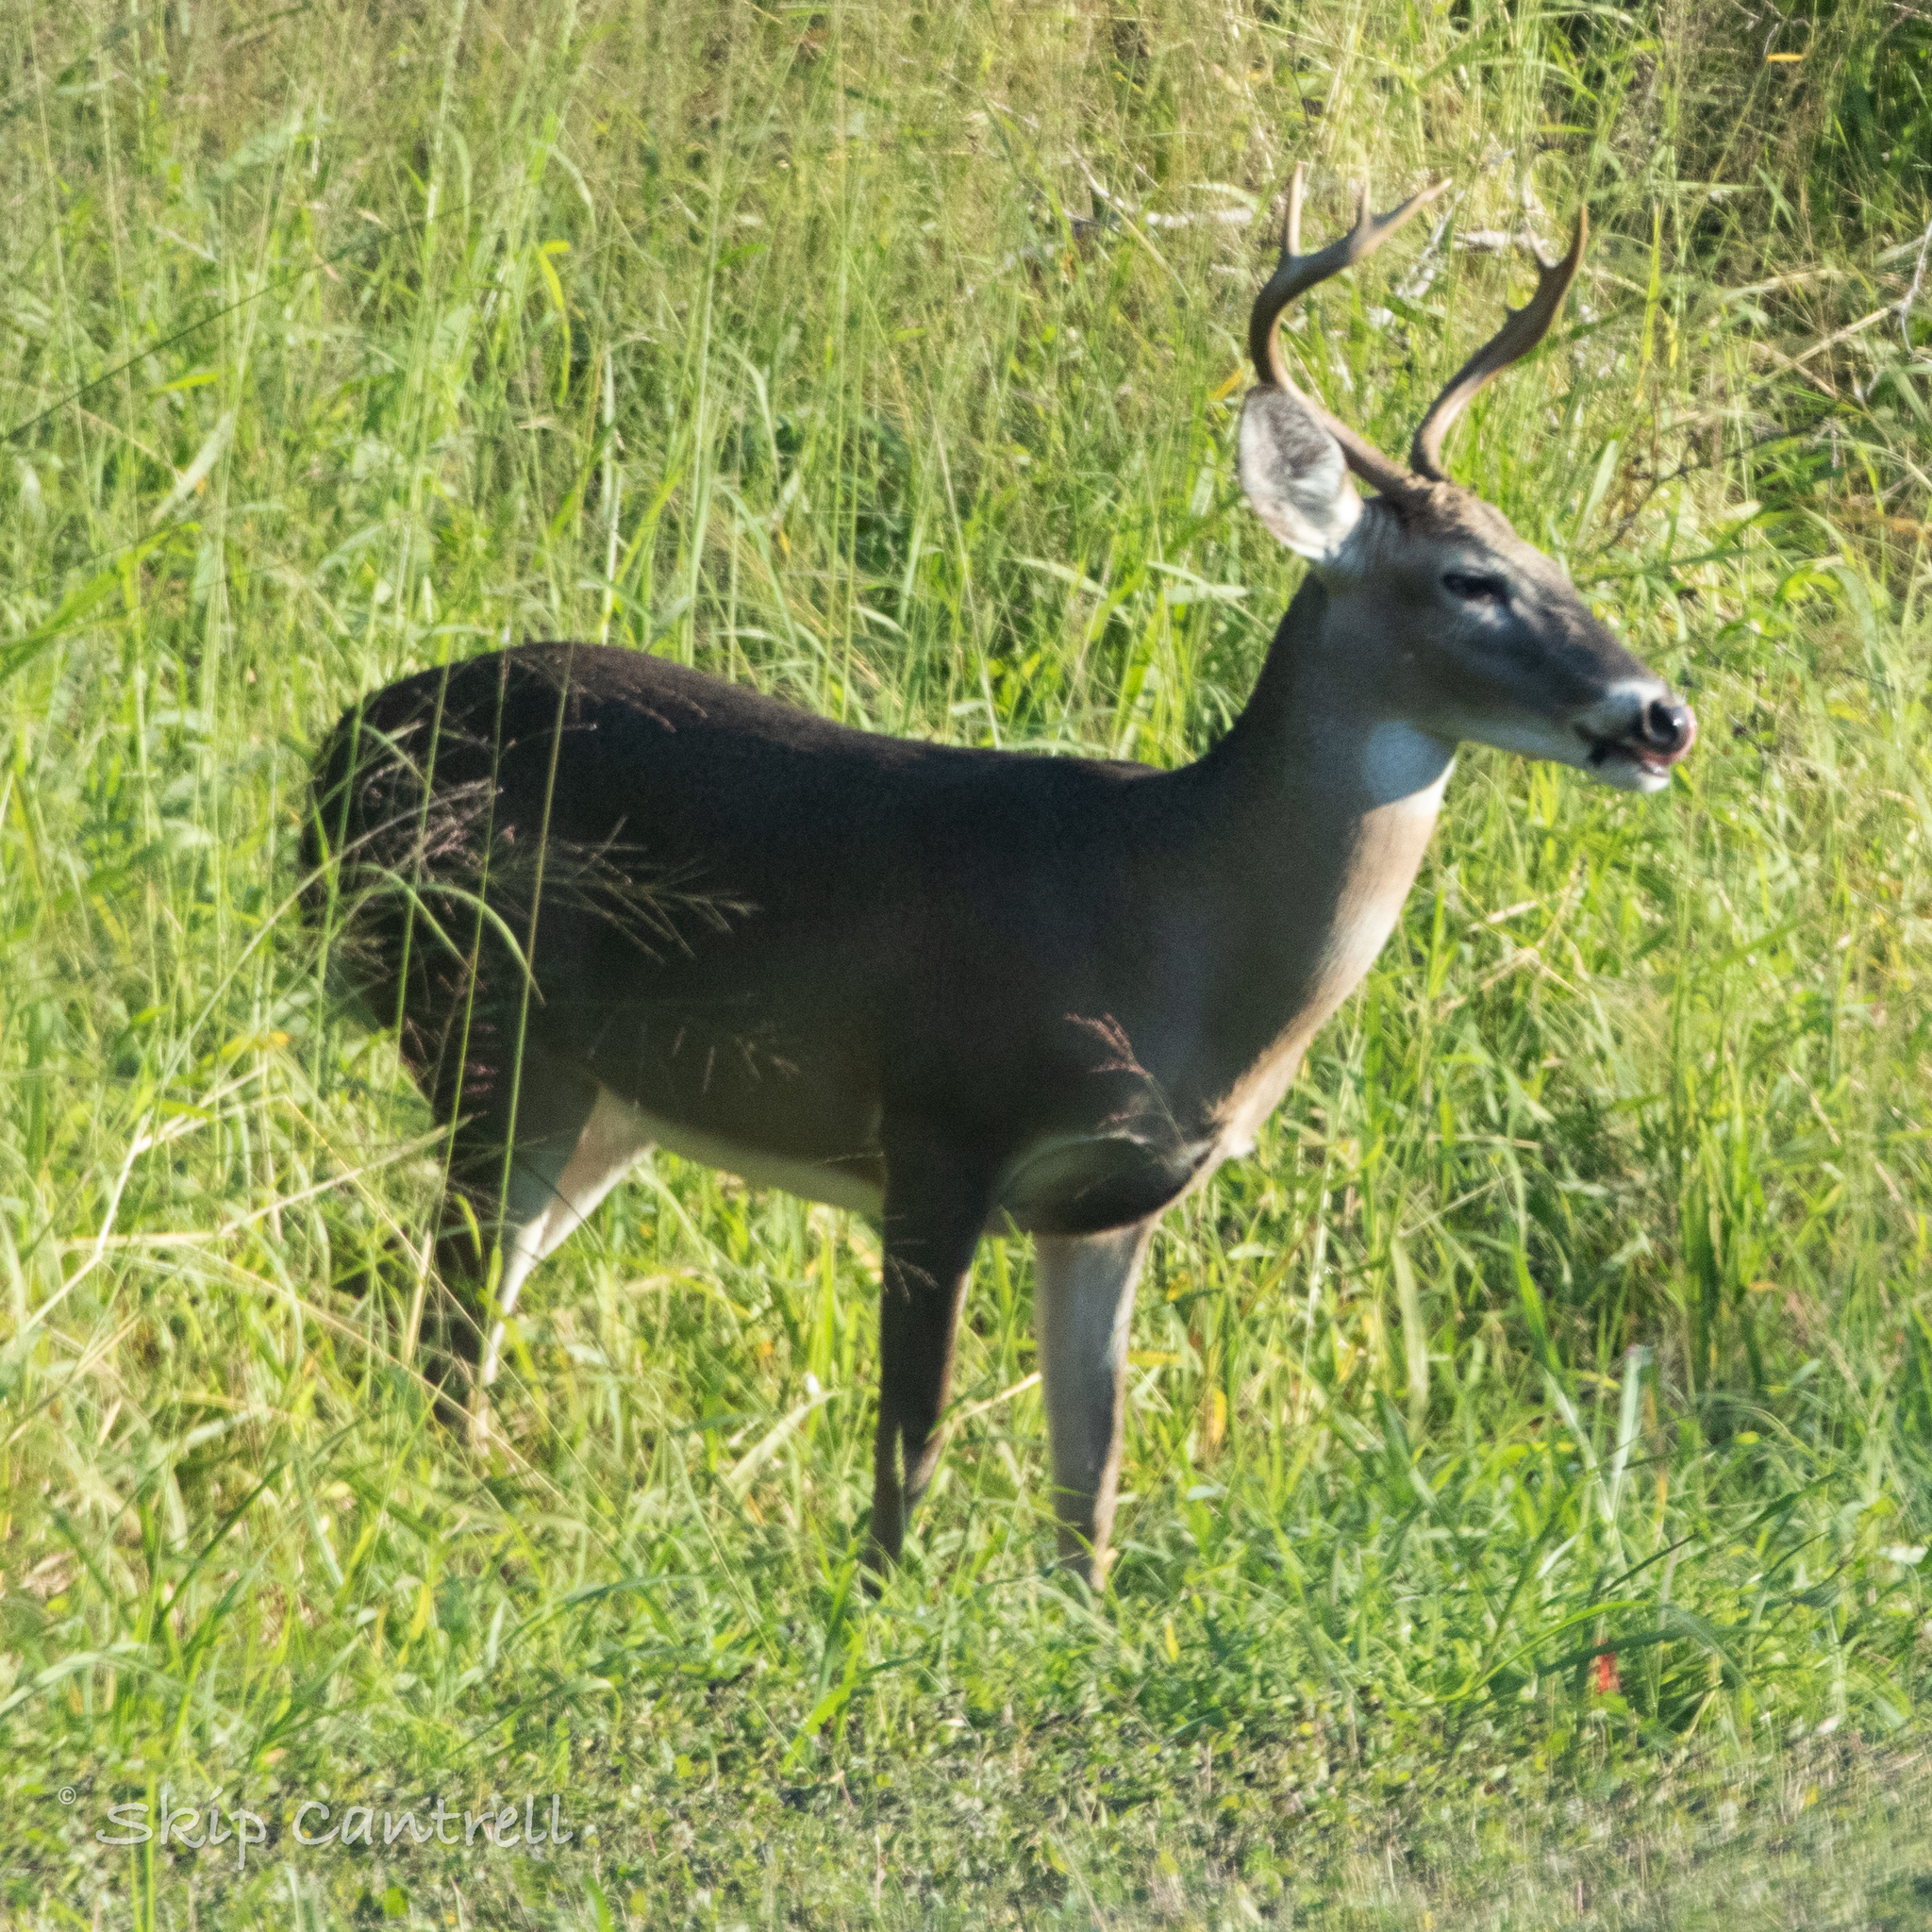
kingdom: Animalia
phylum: Chordata
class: Mammalia
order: Artiodactyla
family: Cervidae
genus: Odocoileus
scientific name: Odocoileus virginianus
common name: White-tailed deer
